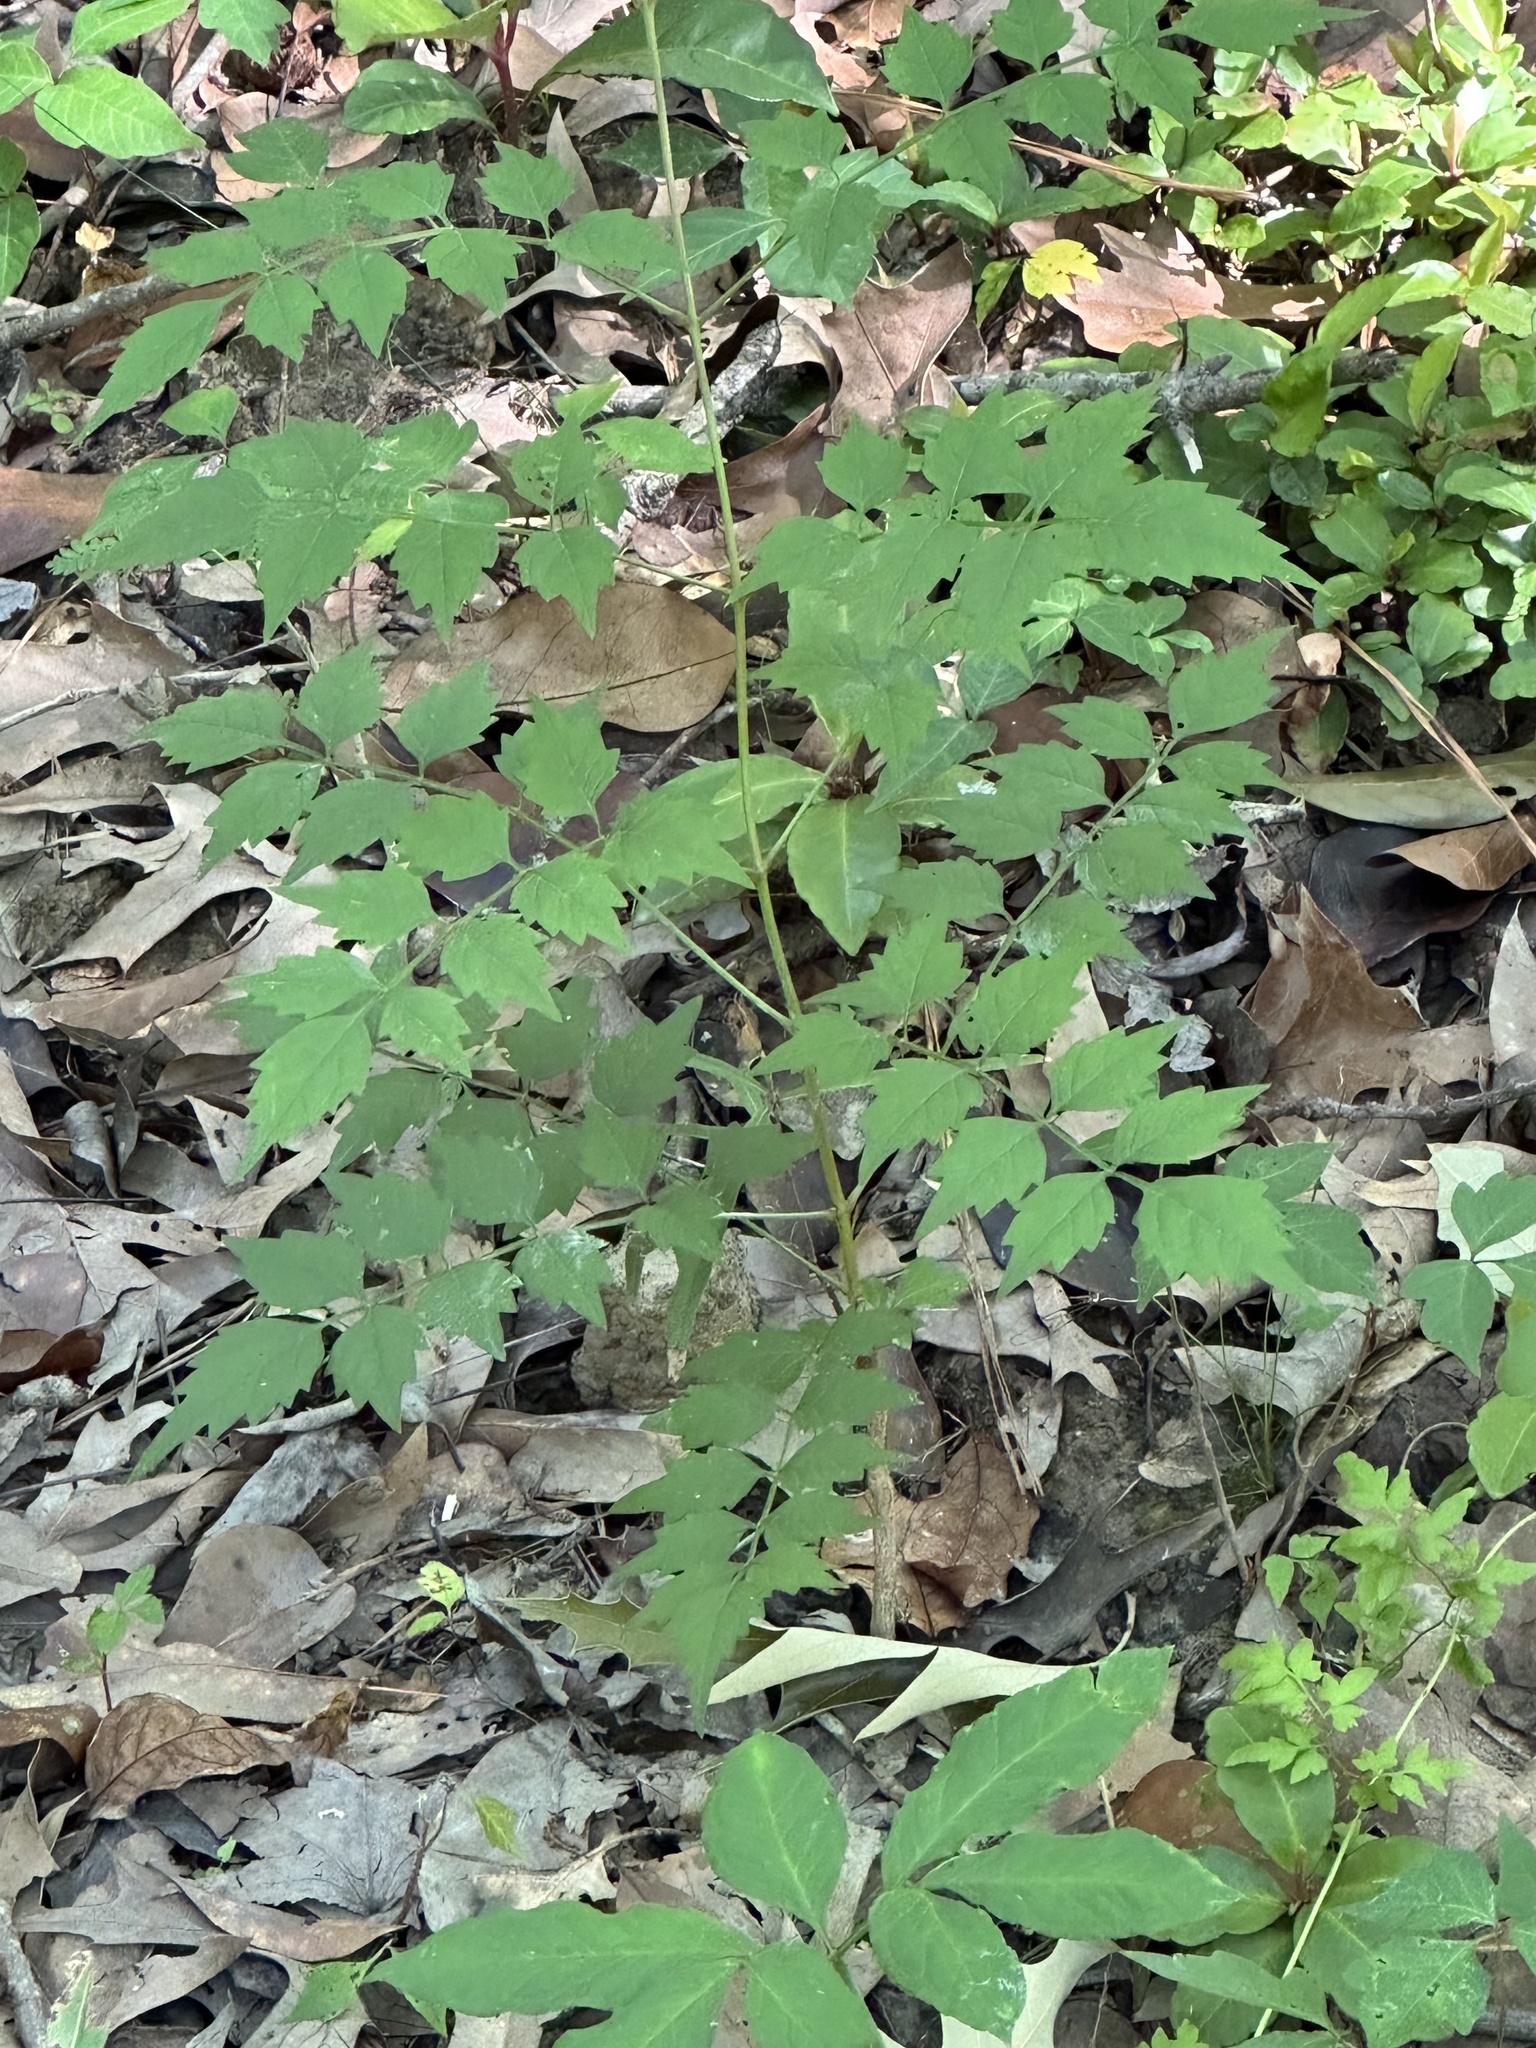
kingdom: Plantae
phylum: Tracheophyta
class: Magnoliopsida
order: Vitales
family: Vitaceae
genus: Nekemias
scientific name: Nekemias arborea
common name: Peppervine
